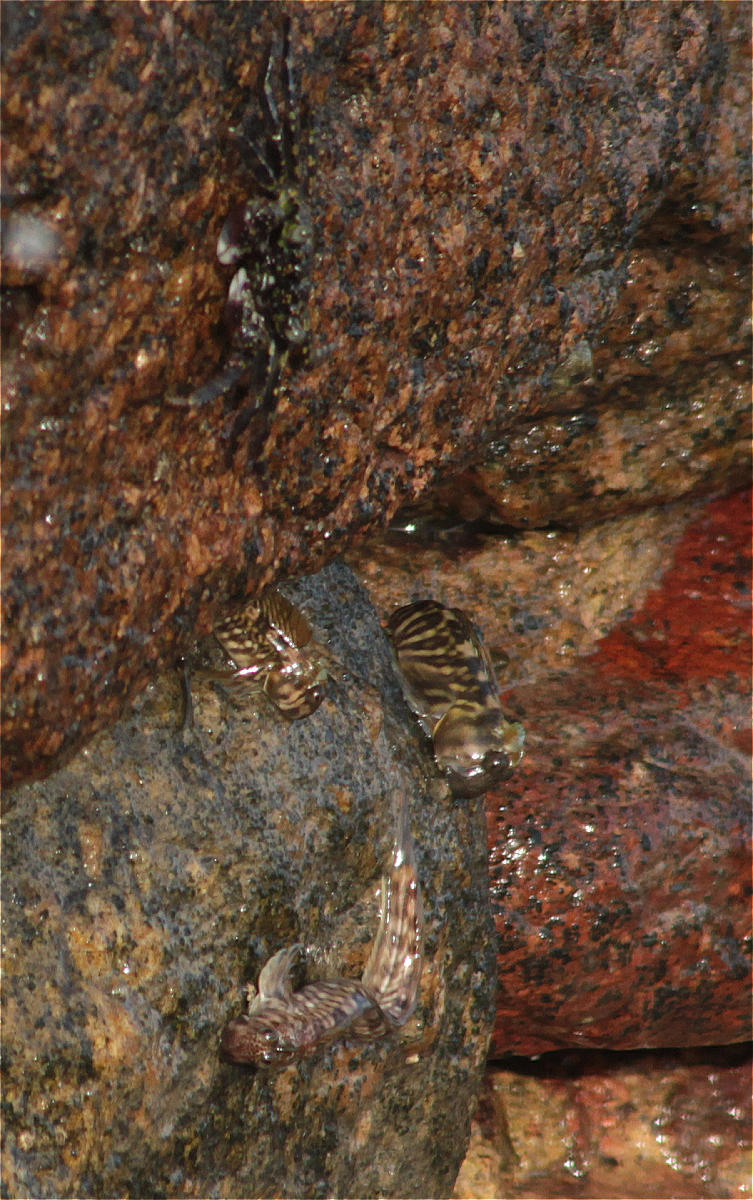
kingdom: Animalia
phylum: Chordata
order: Perciformes
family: Blenniidae
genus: Alticus
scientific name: Alticus magnusi
